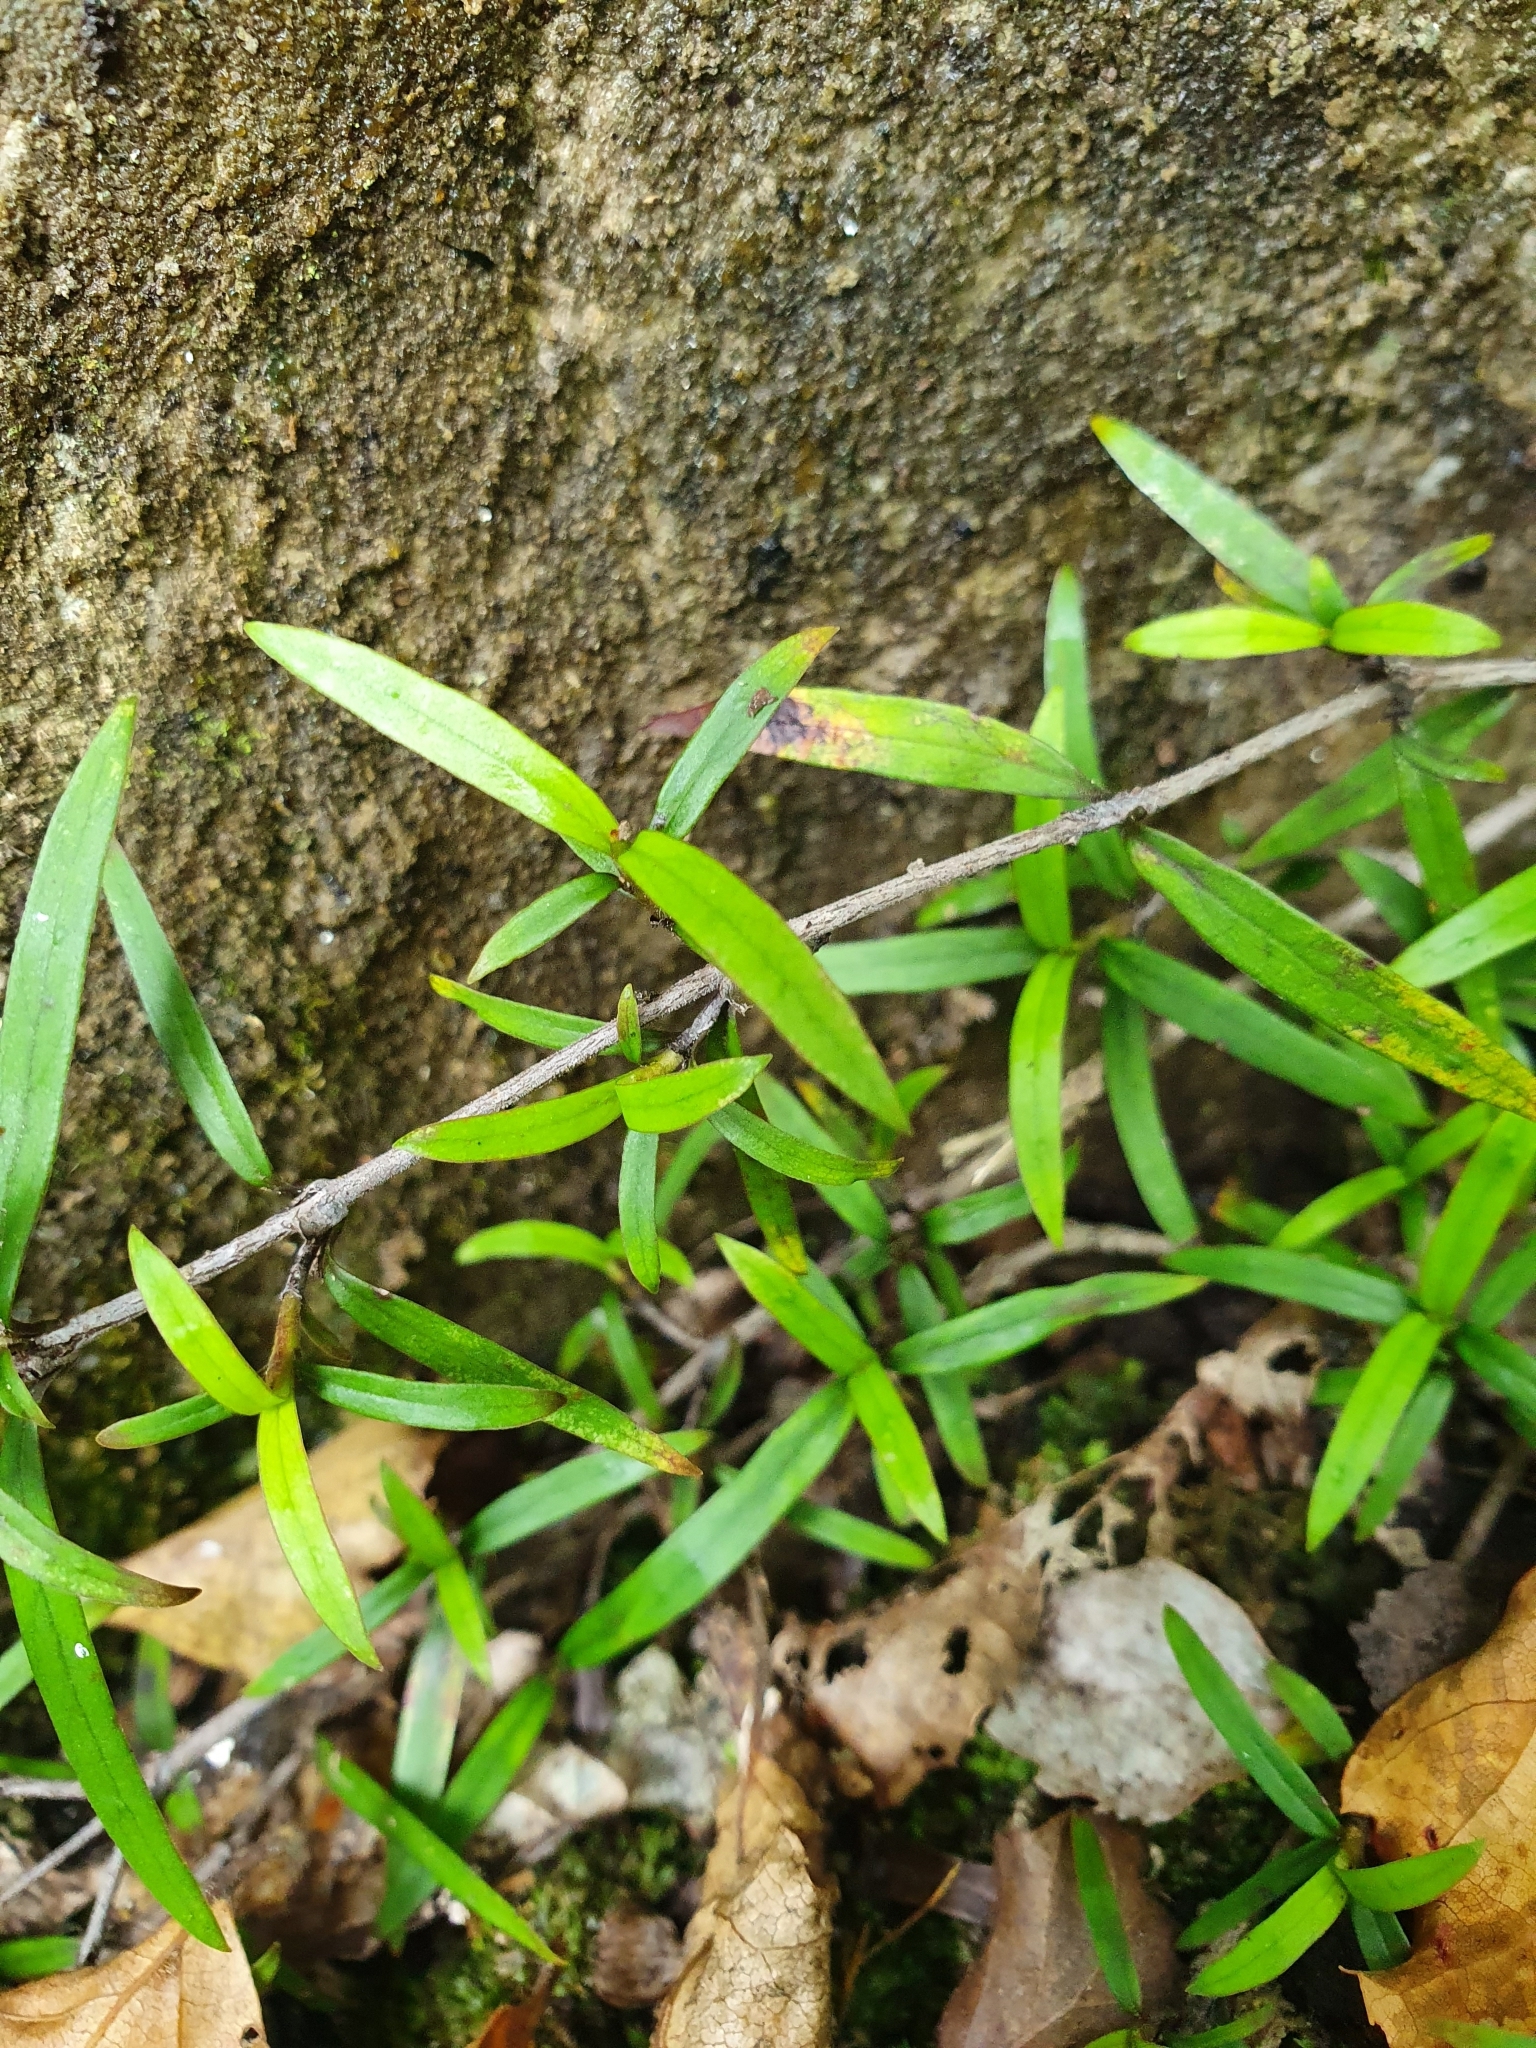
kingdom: Plantae
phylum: Tracheophyta
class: Magnoliopsida
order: Gentianales
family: Rubiaceae
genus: Coprosma
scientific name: Coprosma linariifolia
